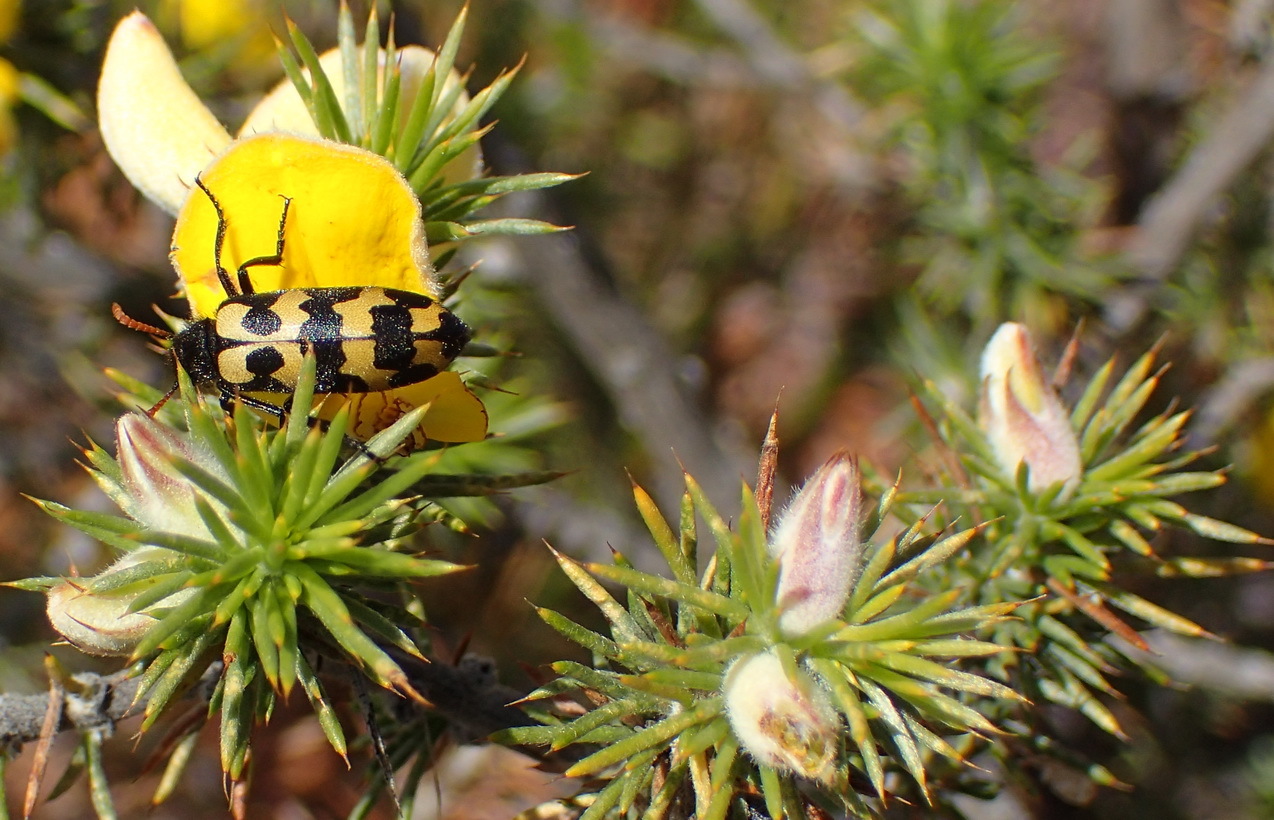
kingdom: Plantae
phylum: Tracheophyta
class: Magnoliopsida
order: Fabales
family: Fabaceae
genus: Aspalathus
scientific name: Aspalathus hirta
